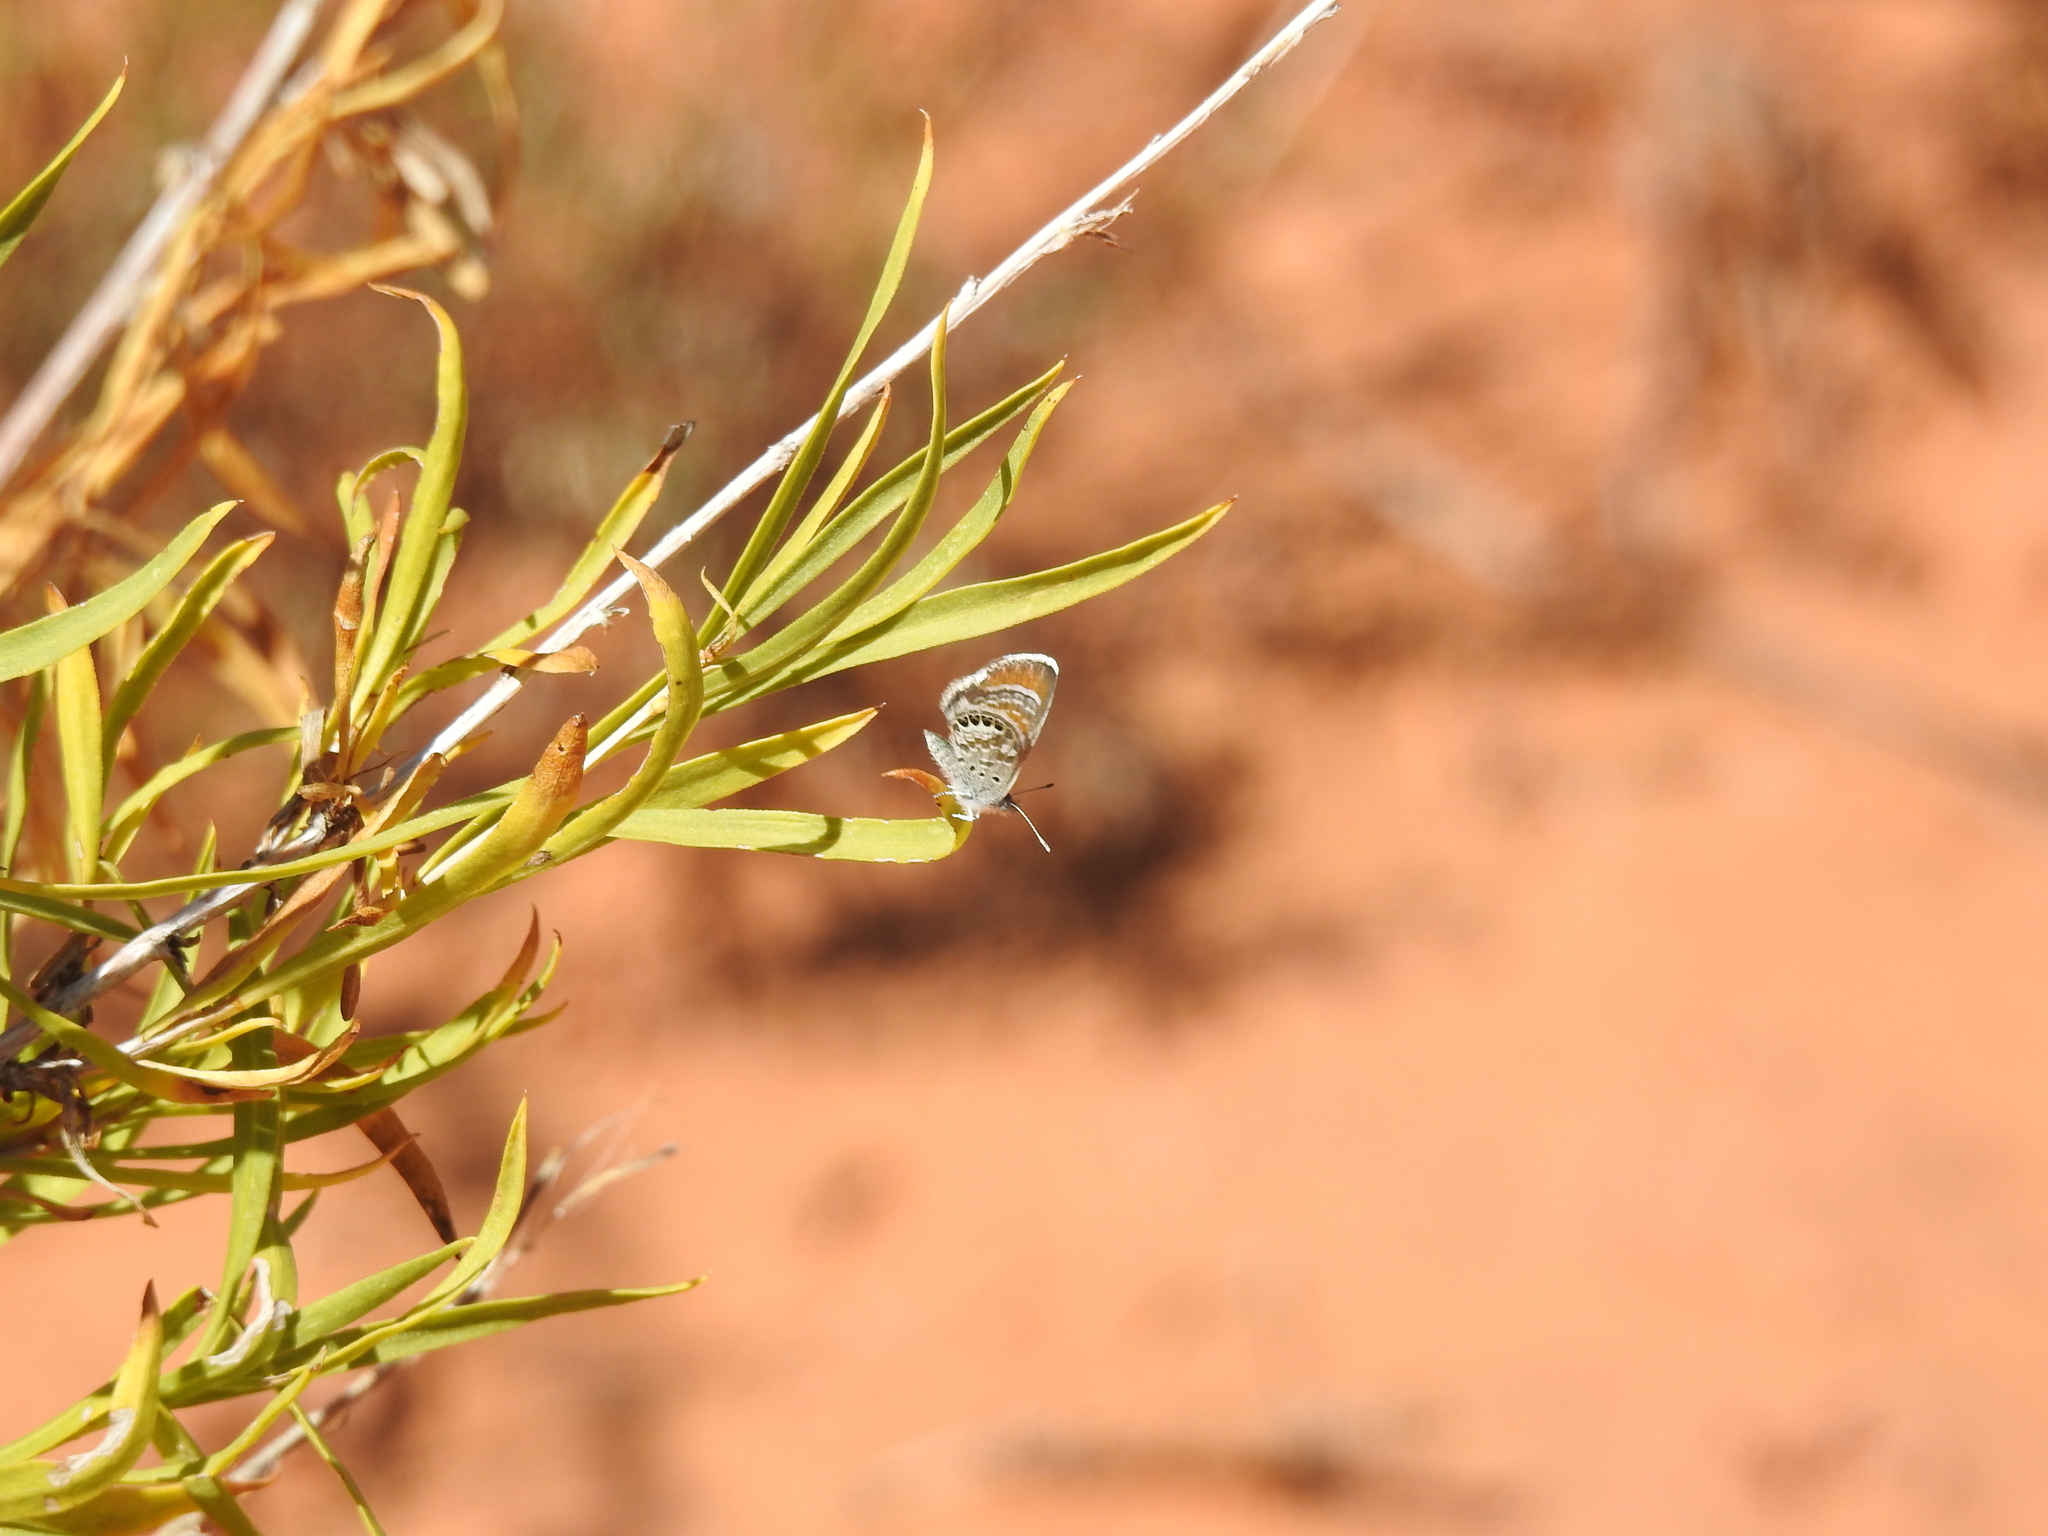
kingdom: Animalia
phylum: Arthropoda
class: Insecta
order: Lepidoptera
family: Lycaenidae
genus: Brephidium
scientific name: Brephidium exilis
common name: Pygmy blue
